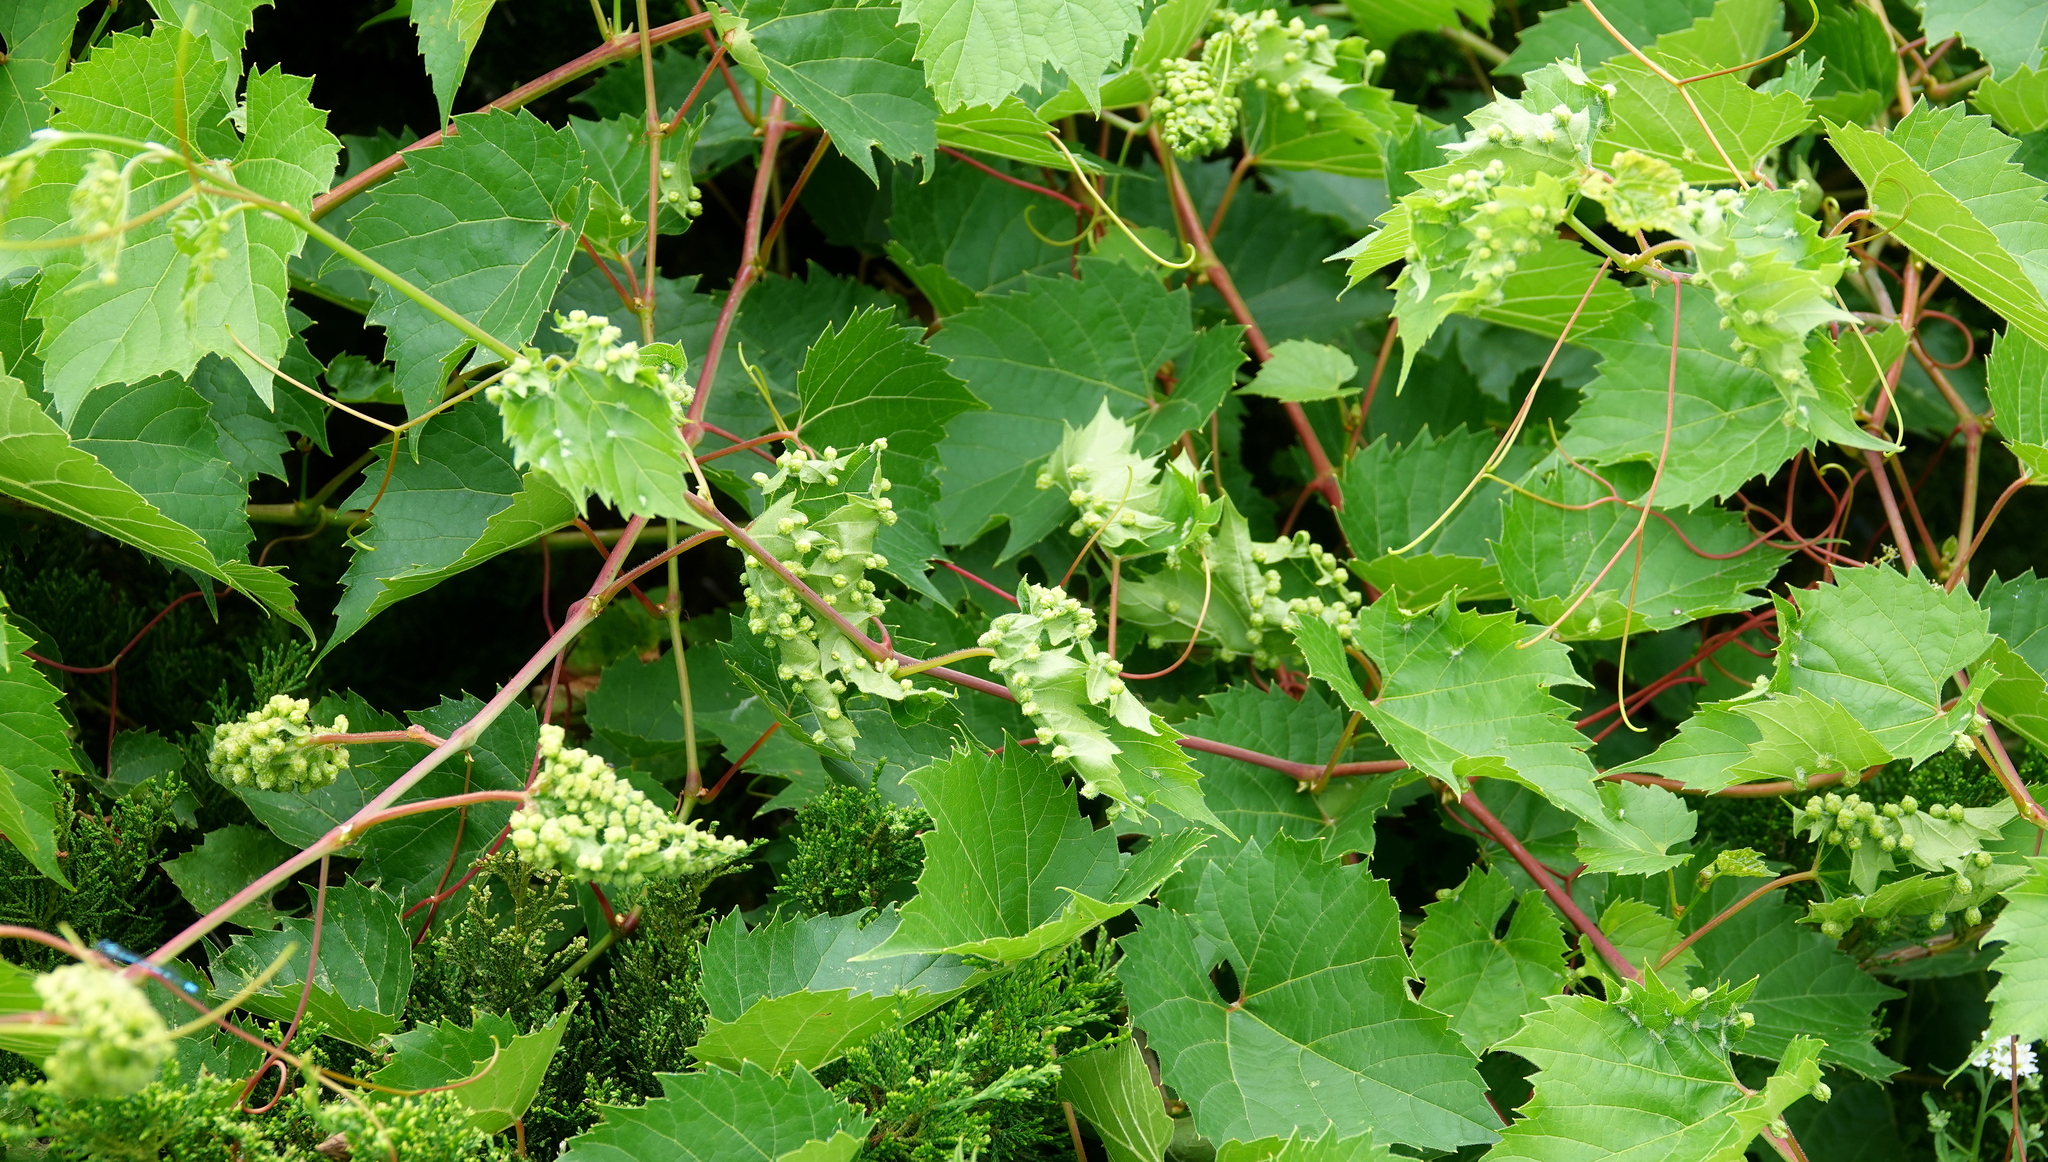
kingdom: Animalia
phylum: Arthropoda
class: Insecta
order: Hemiptera
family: Phylloxeridae
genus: Daktulosphaira
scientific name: Daktulosphaira vitifoliae
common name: Grape phylloxera
